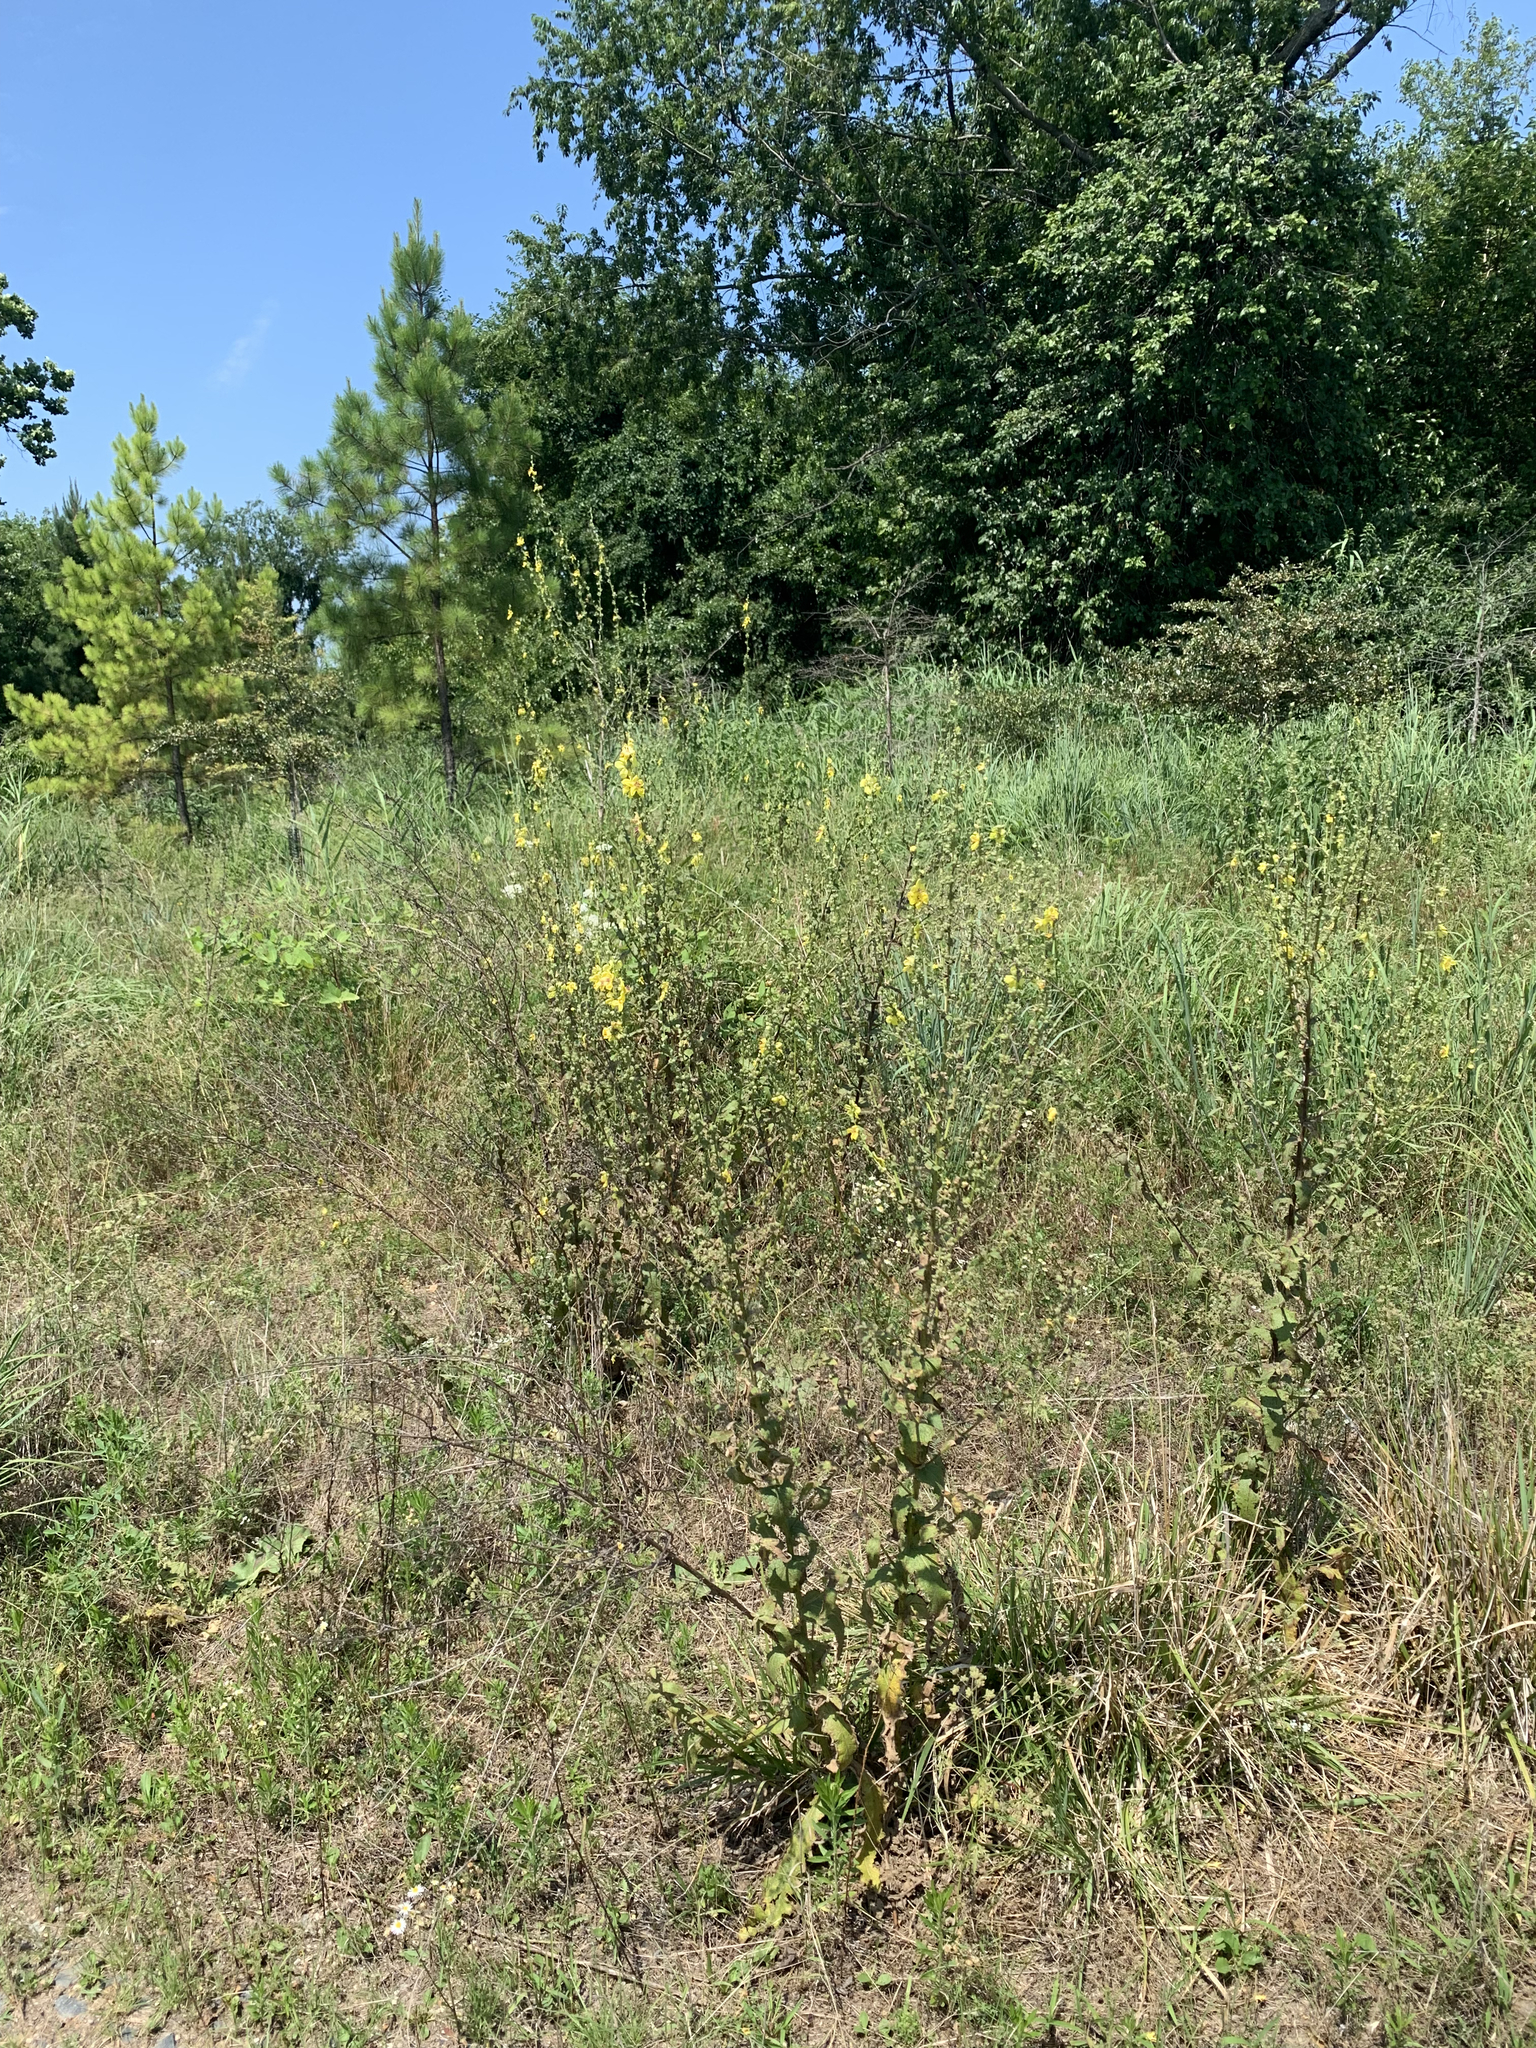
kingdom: Plantae
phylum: Tracheophyta
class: Magnoliopsida
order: Lamiales
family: Scrophulariaceae
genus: Verbascum
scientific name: Verbascum sinuatum
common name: Wavyleaf mullein
